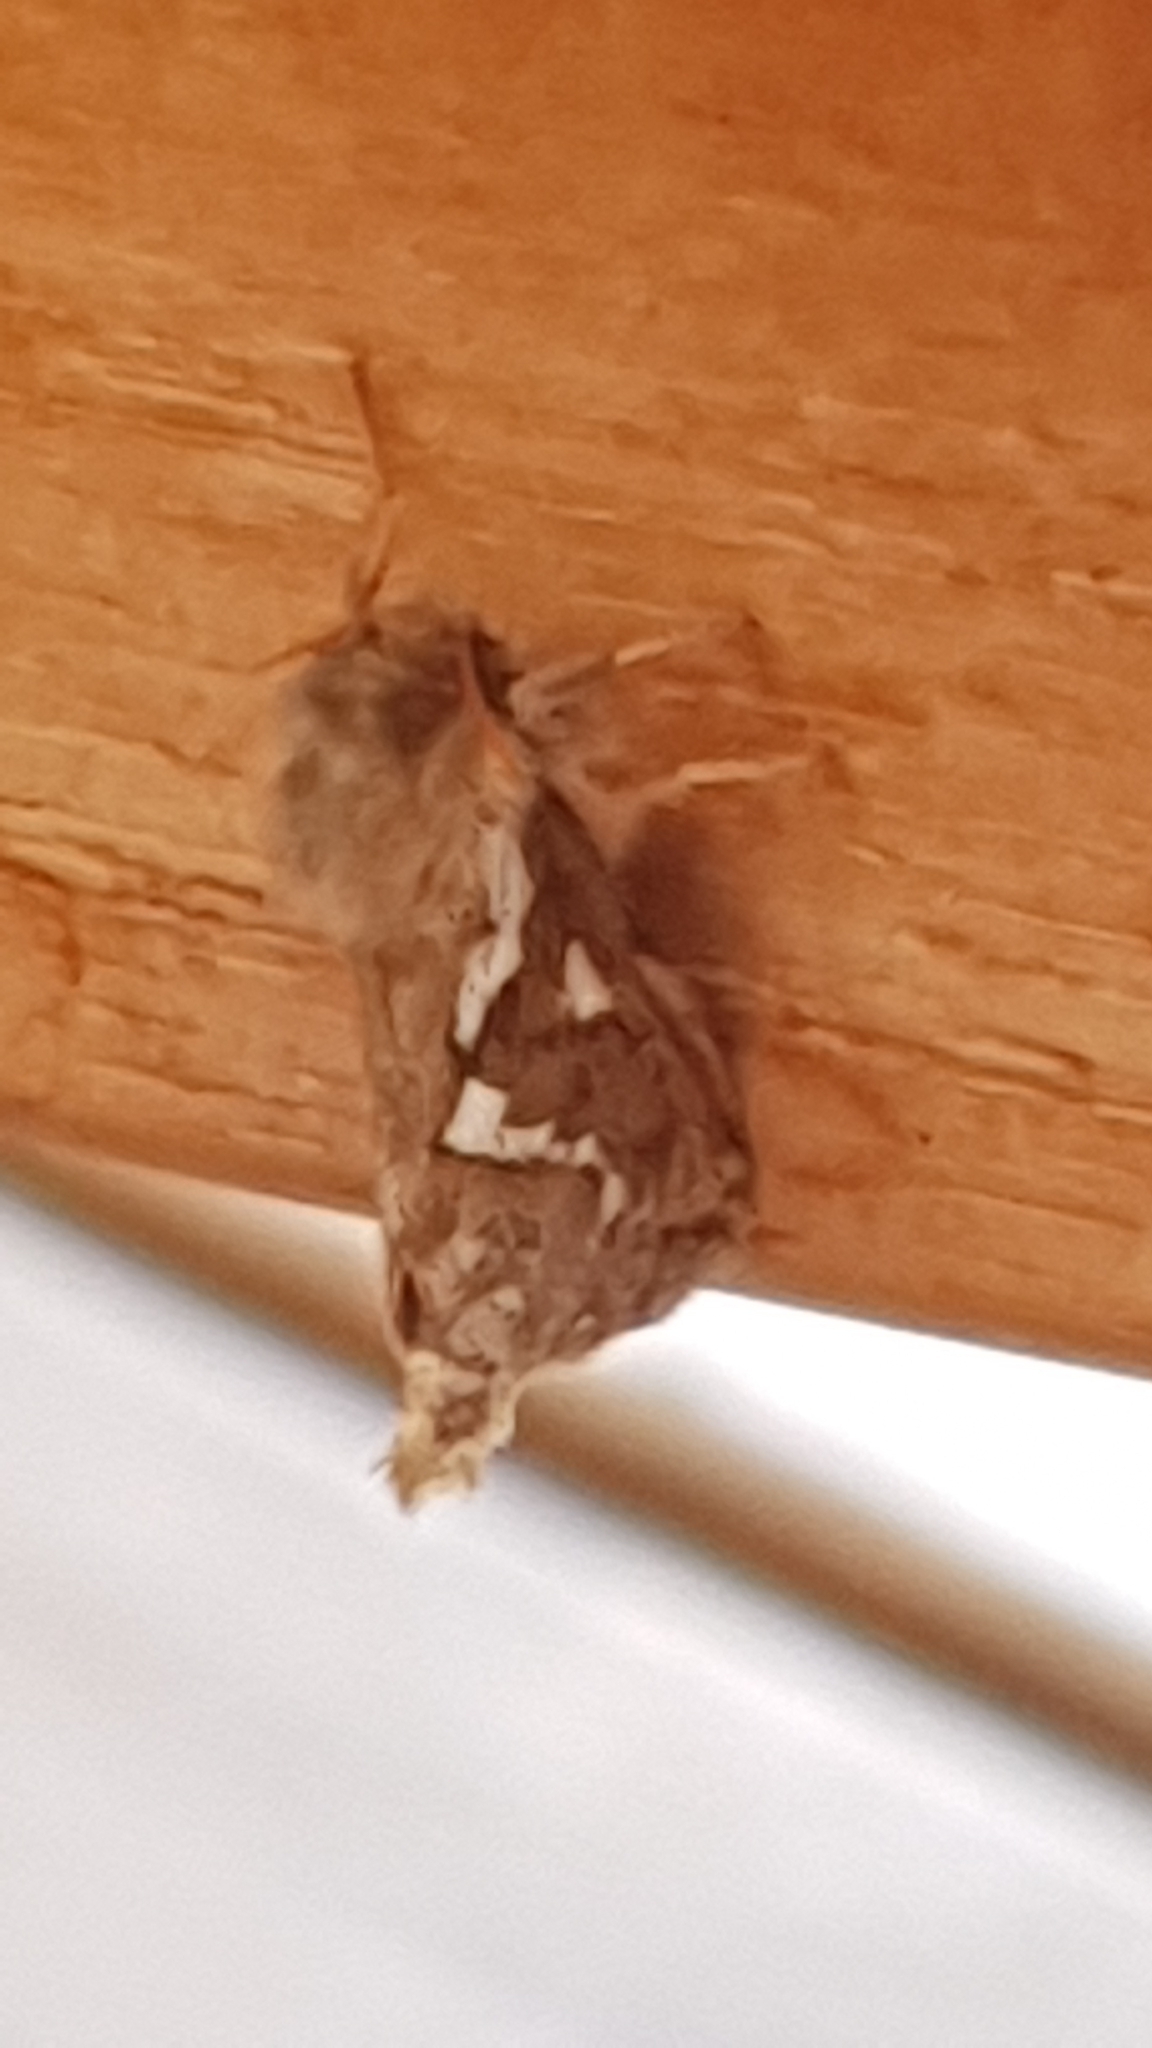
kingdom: Animalia
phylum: Arthropoda
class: Insecta
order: Lepidoptera
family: Hepialidae
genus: Korscheltellus
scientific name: Korscheltellus lupulina
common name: Common swift
